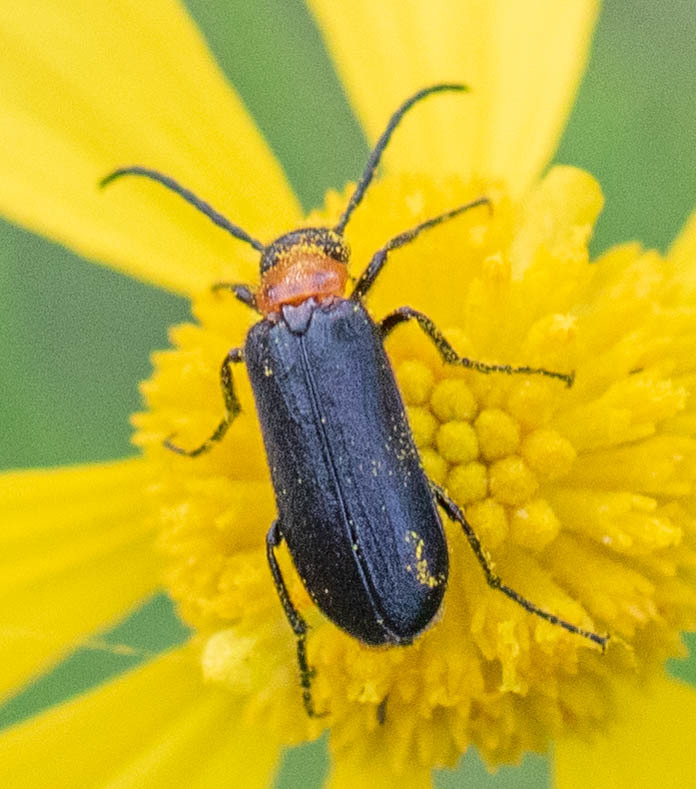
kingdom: Animalia
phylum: Arthropoda
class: Insecta
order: Coleoptera
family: Meloidae
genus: Nemognatha
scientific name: Nemognatha nemorensis
